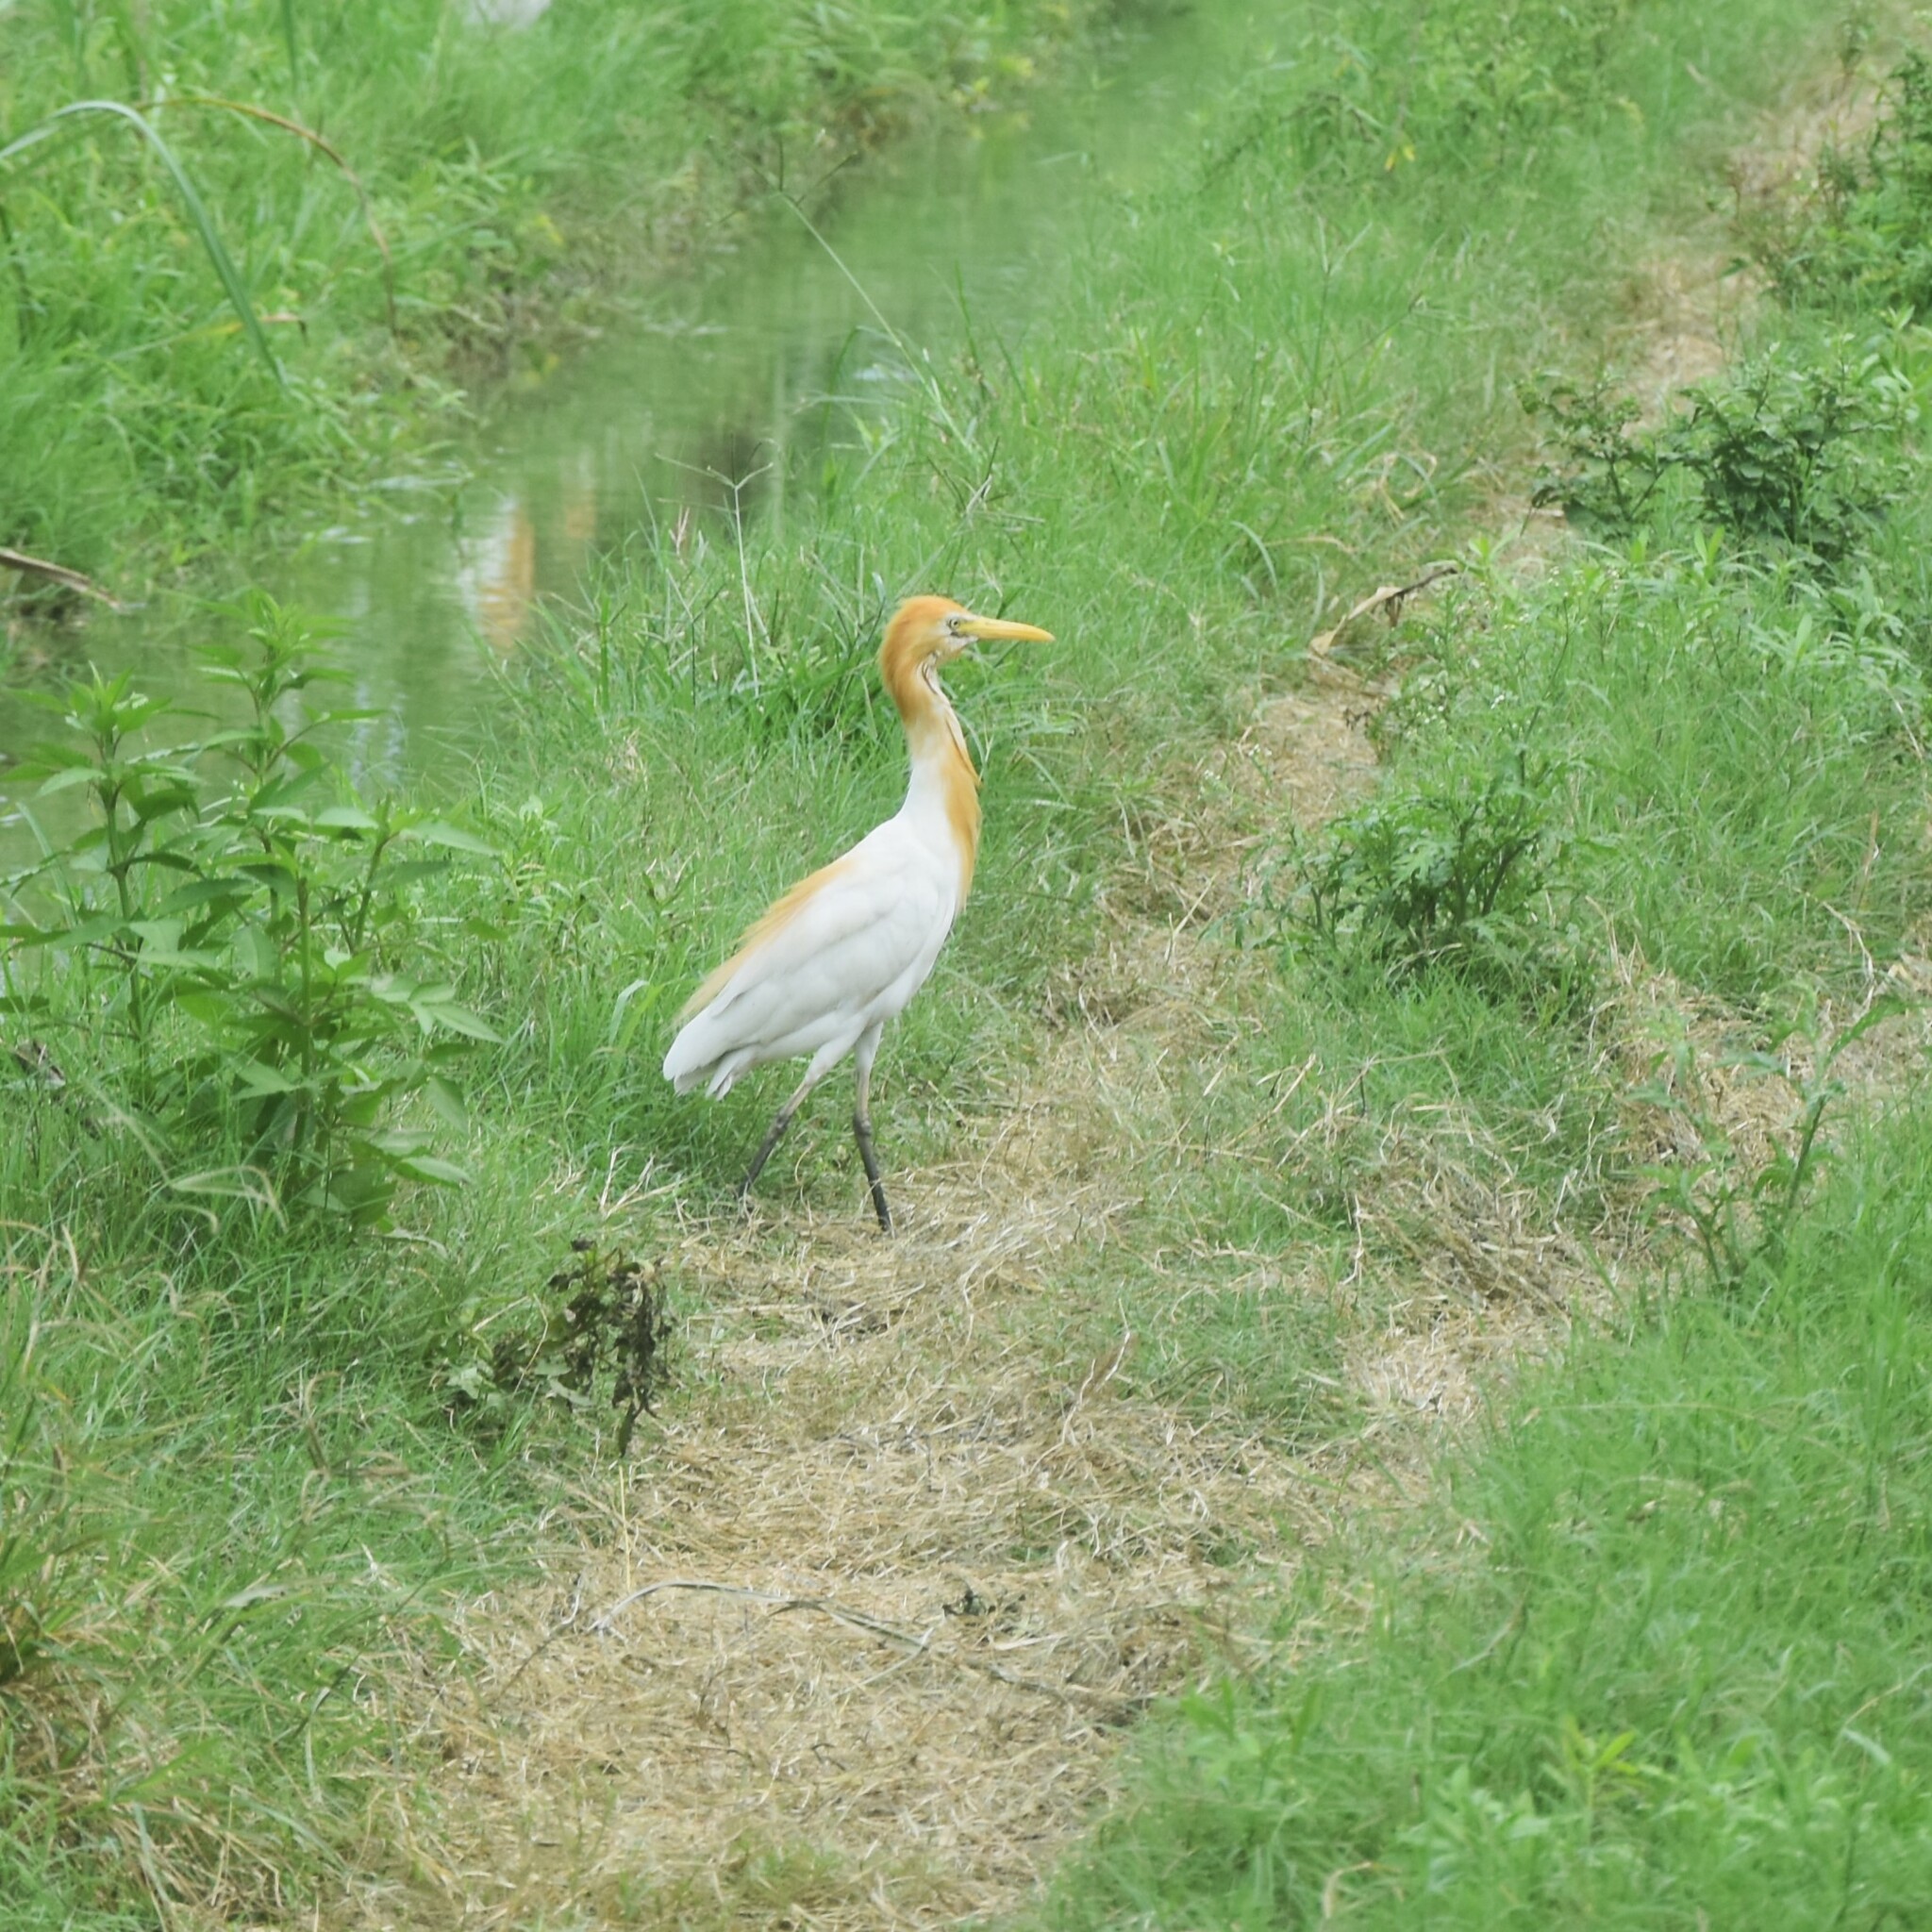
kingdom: Animalia
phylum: Chordata
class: Aves
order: Pelecaniformes
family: Ardeidae
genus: Bubulcus
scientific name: Bubulcus coromandus
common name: Eastern cattle egret
